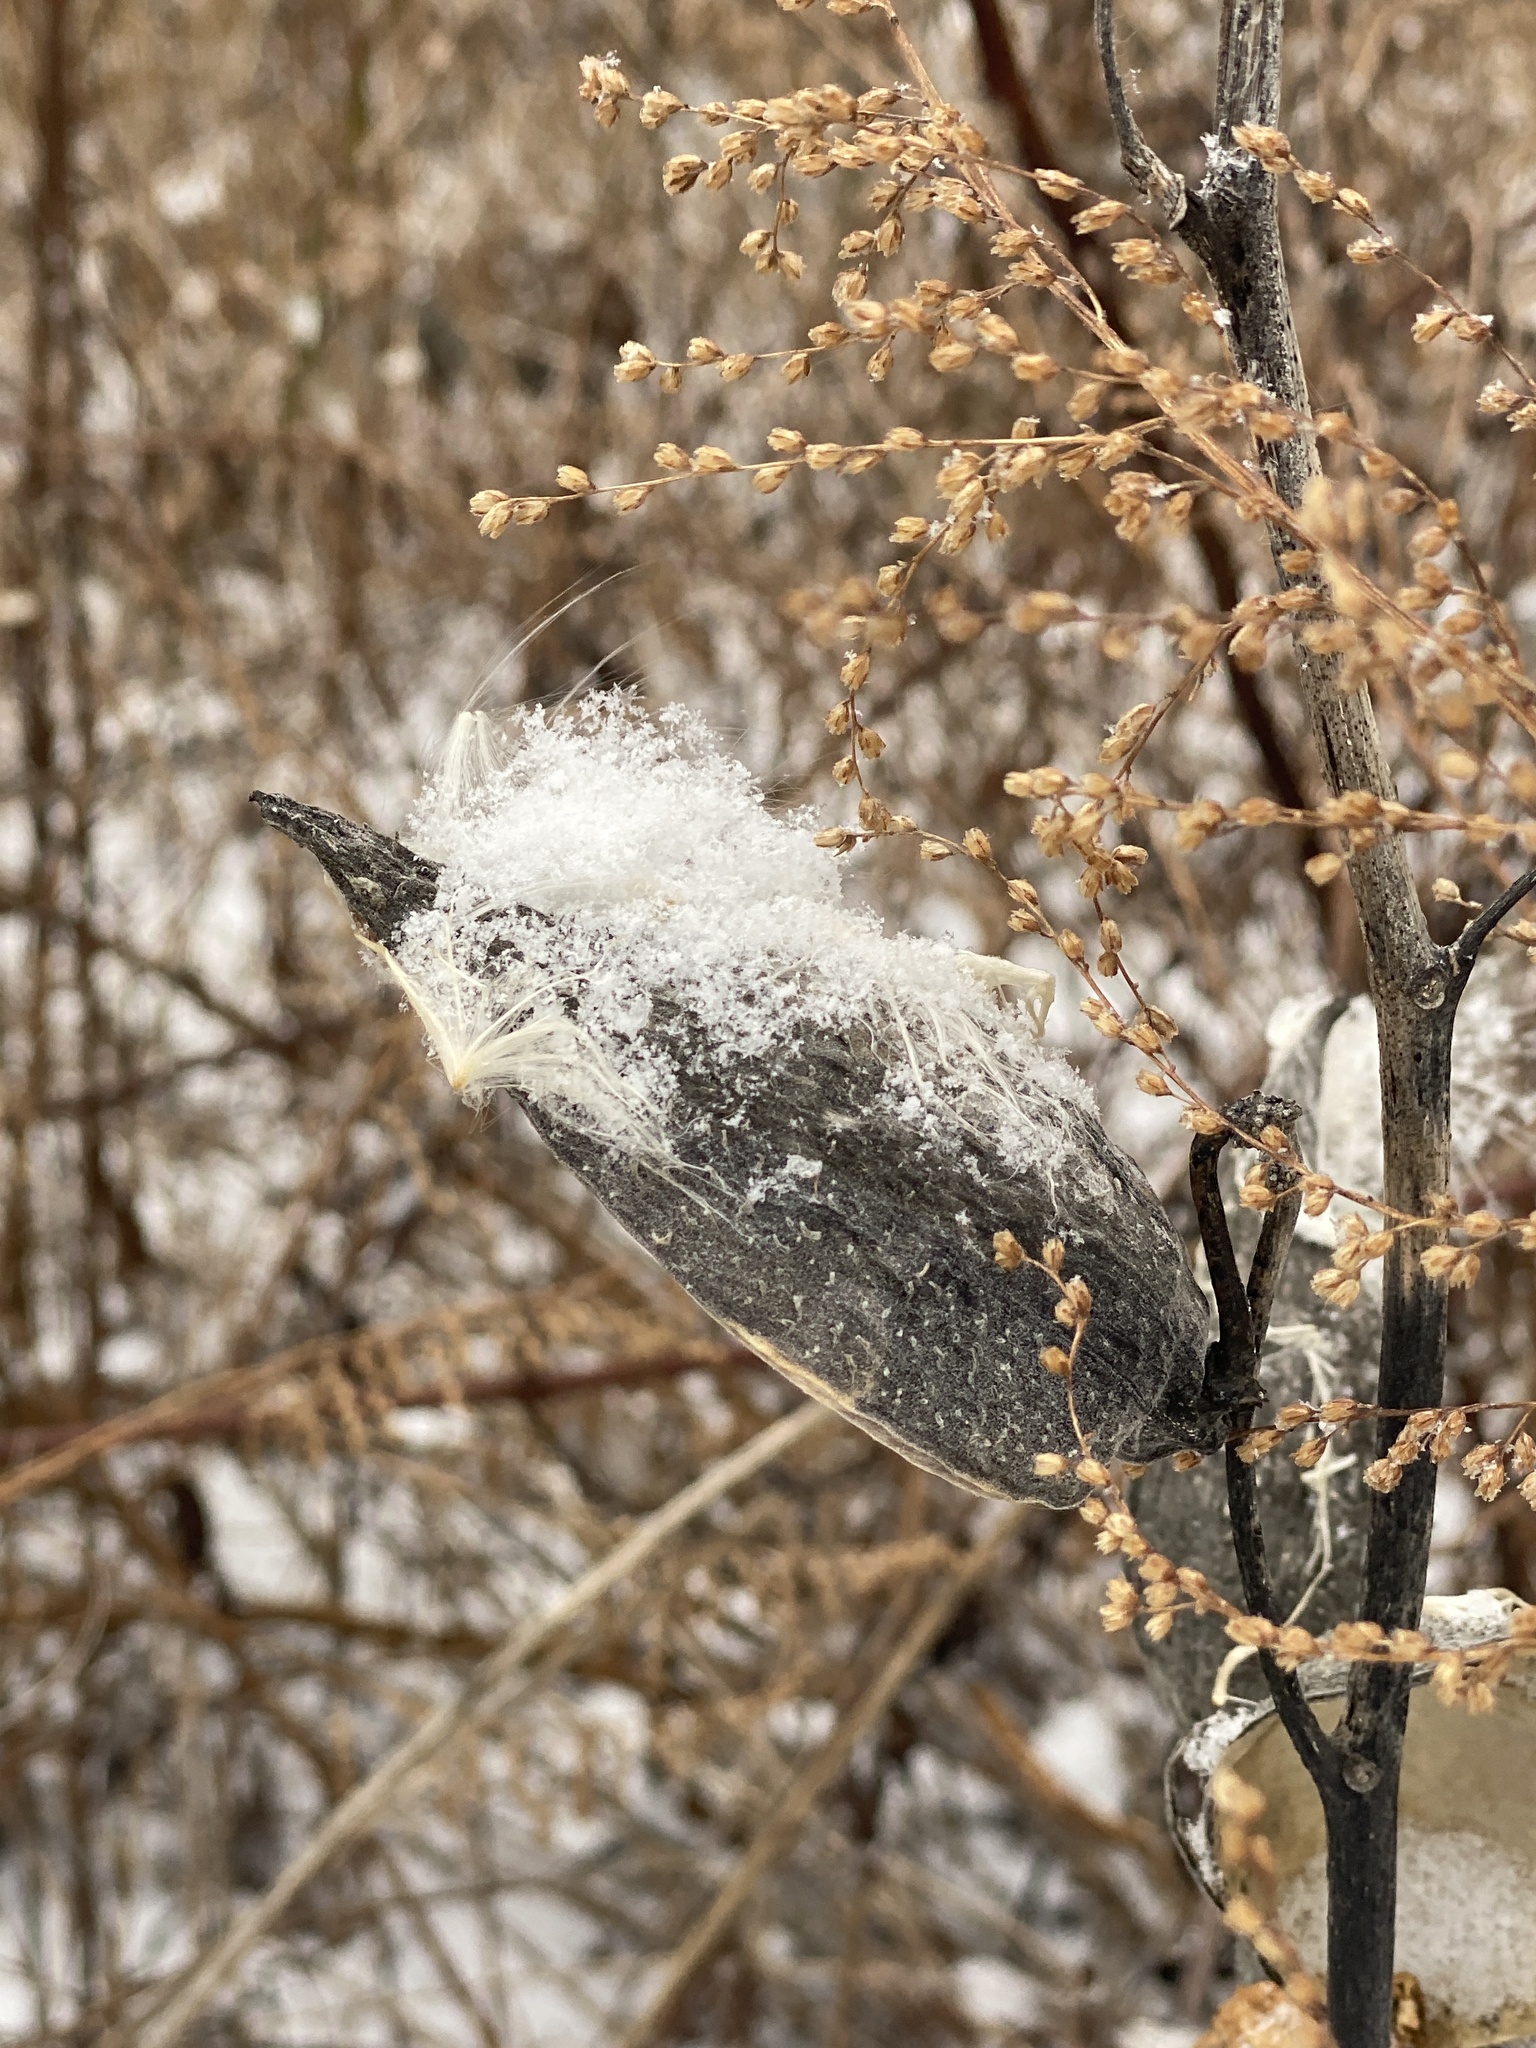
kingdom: Plantae
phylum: Tracheophyta
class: Magnoliopsida
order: Gentianales
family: Apocynaceae
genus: Asclepias
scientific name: Asclepias syriaca
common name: Common milkweed
